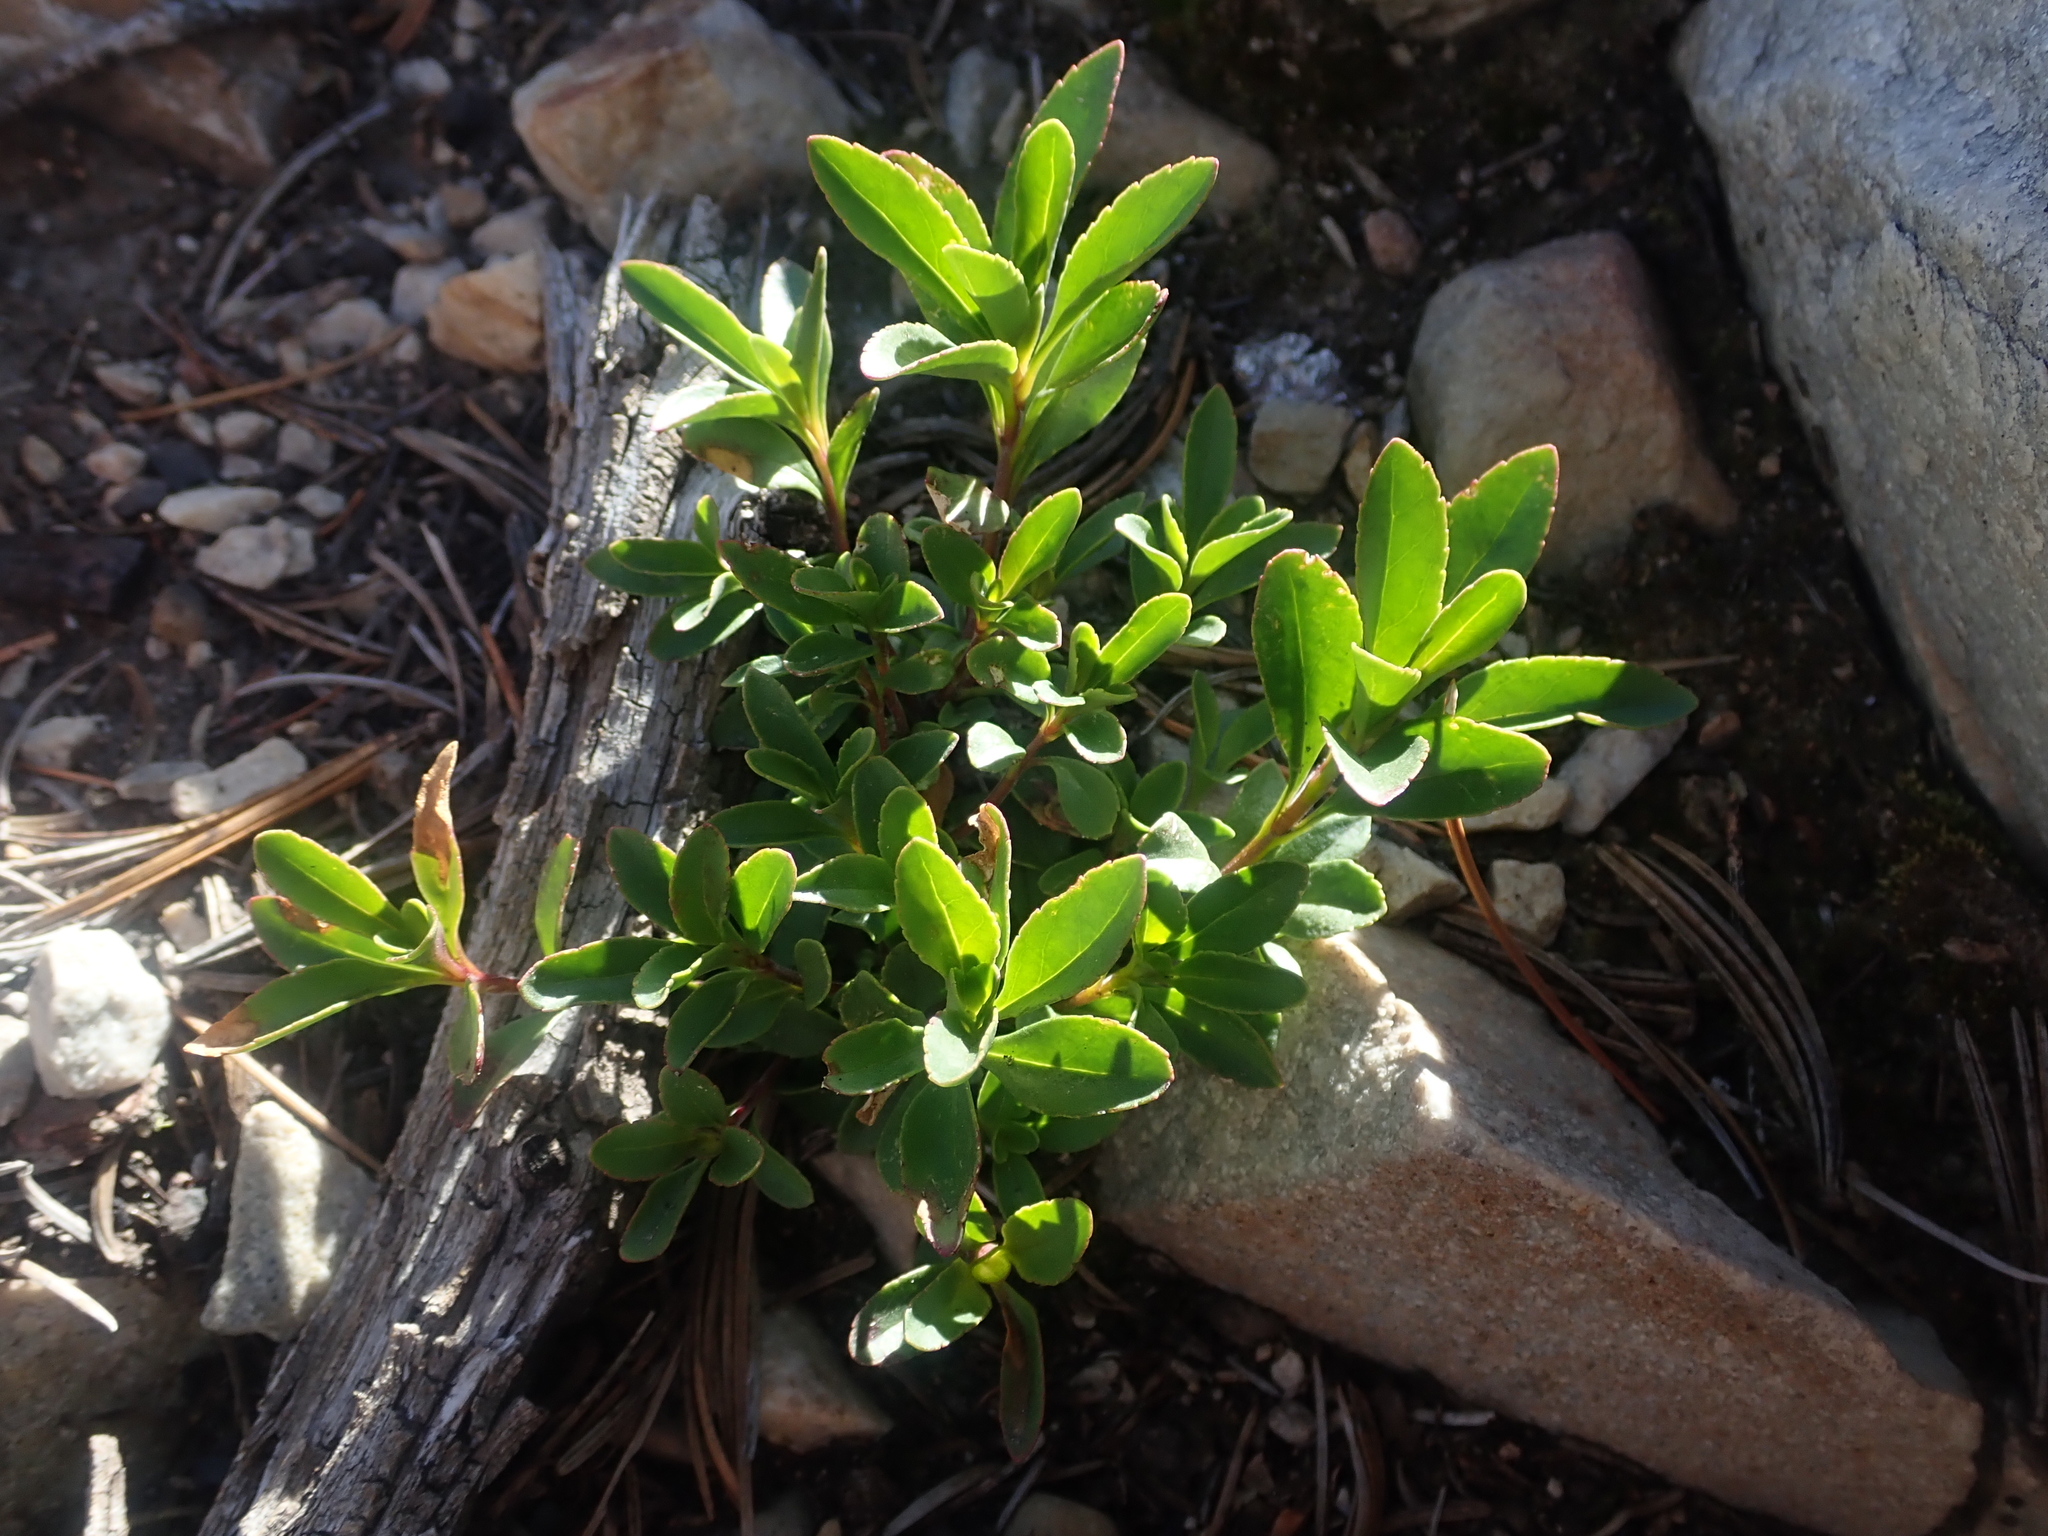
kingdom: Plantae
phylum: Tracheophyta
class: Magnoliopsida
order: Lamiales
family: Plantaginaceae
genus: Penstemon
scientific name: Penstemon ellipticus
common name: Alpine beardtongue
